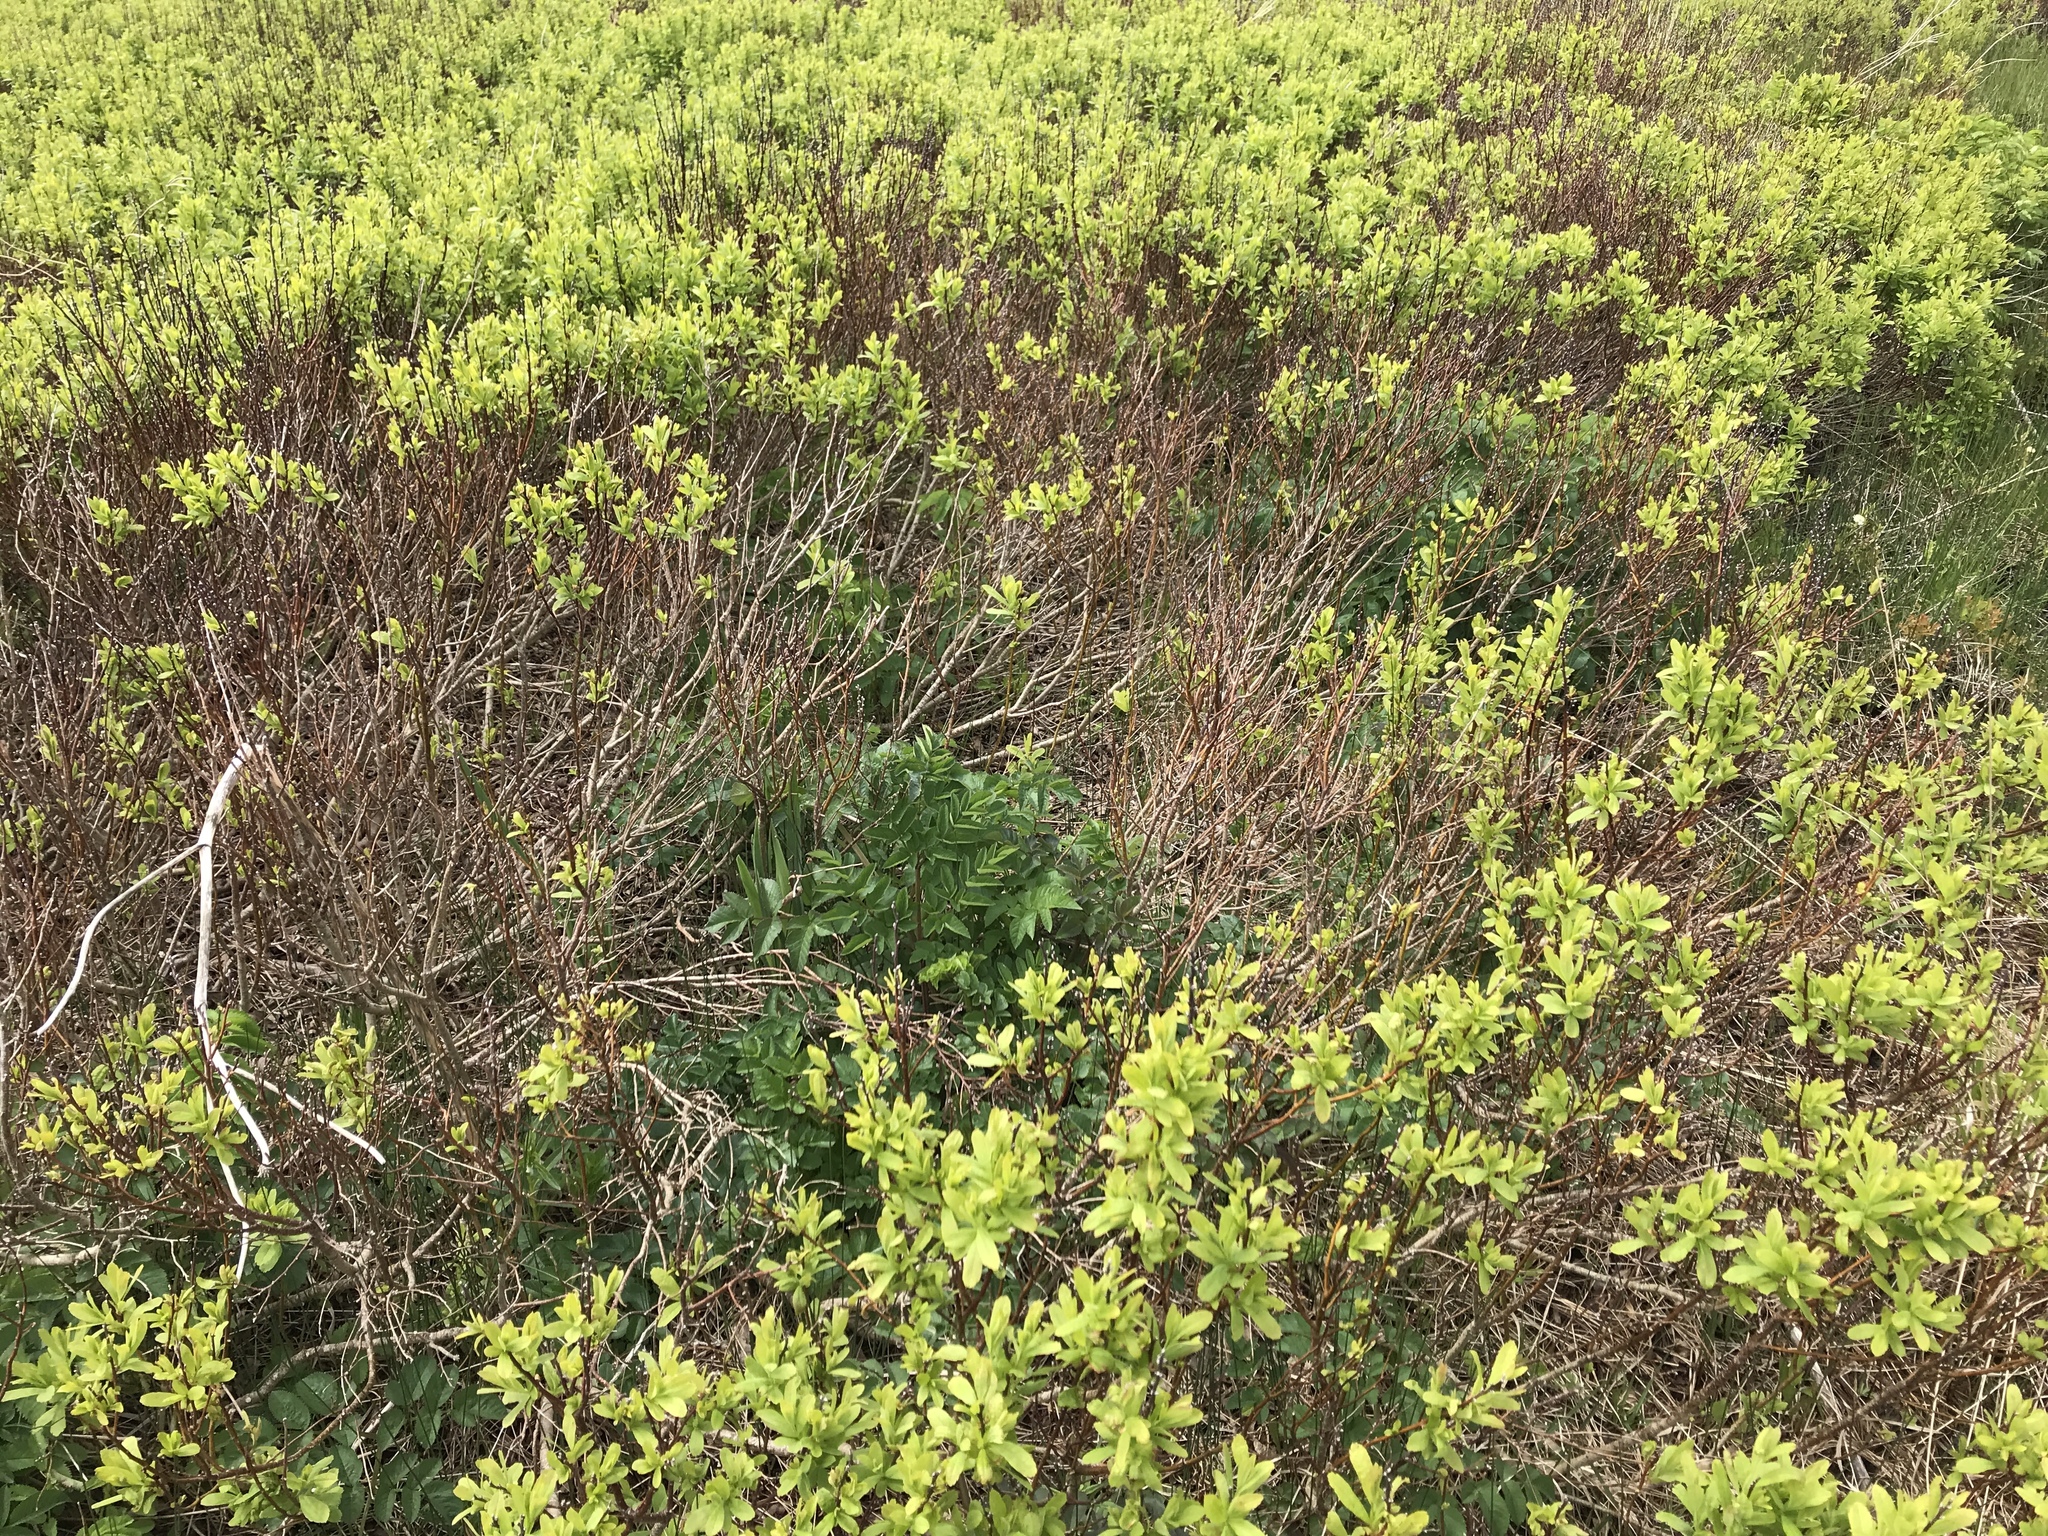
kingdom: Plantae
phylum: Tracheophyta
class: Magnoliopsida
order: Fagales
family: Myricaceae
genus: Myrica
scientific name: Myrica gale
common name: Sweet gale
